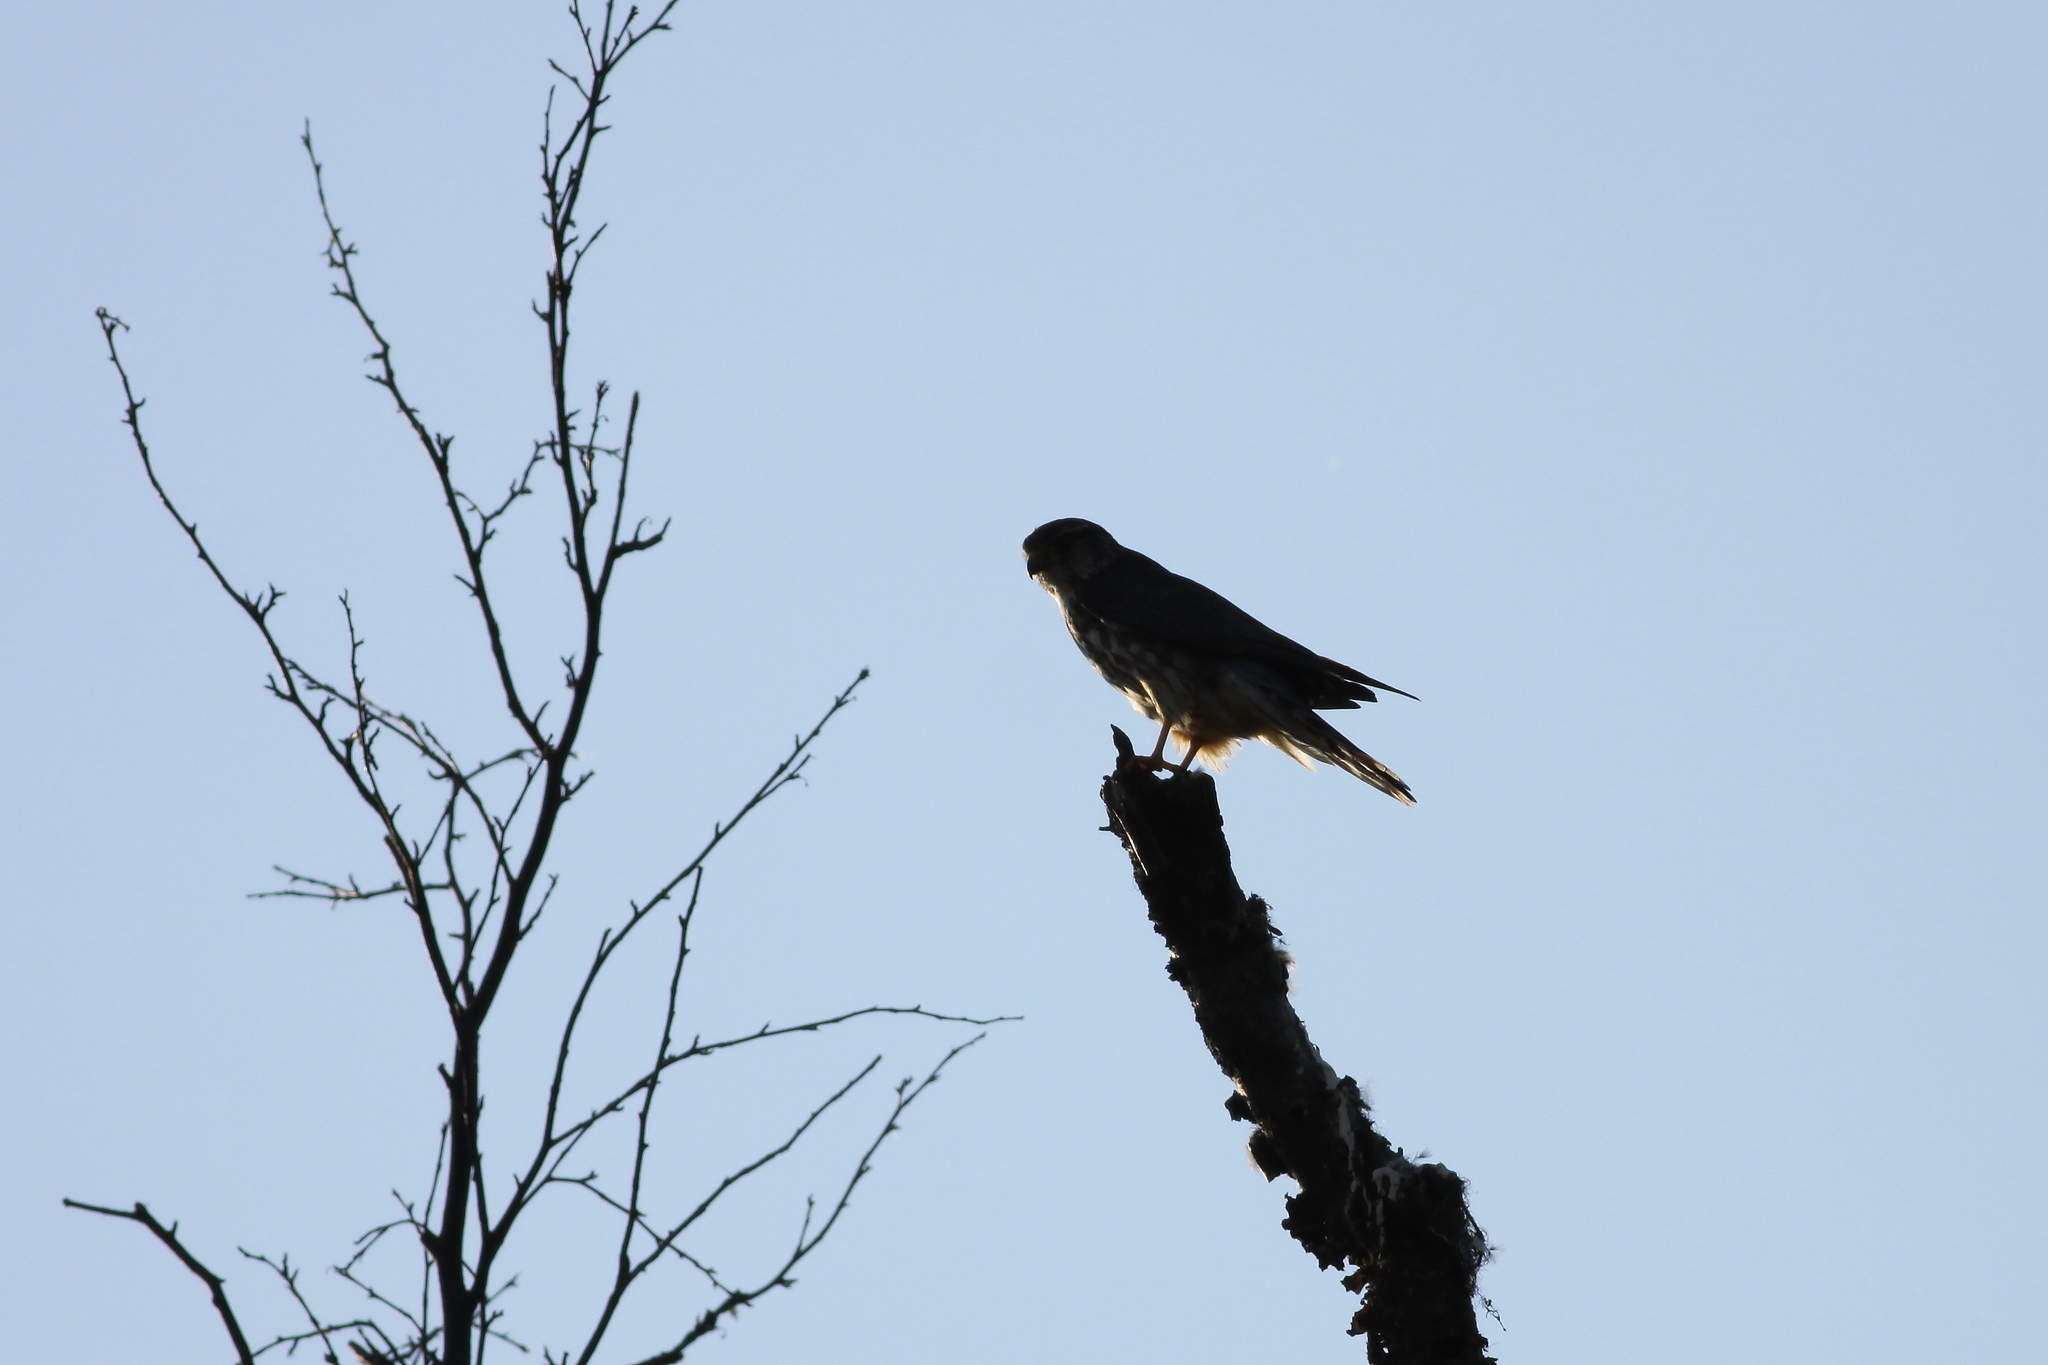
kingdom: Animalia
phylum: Chordata
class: Aves
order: Falconiformes
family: Falconidae
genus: Falco
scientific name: Falco columbarius
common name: Merlin
